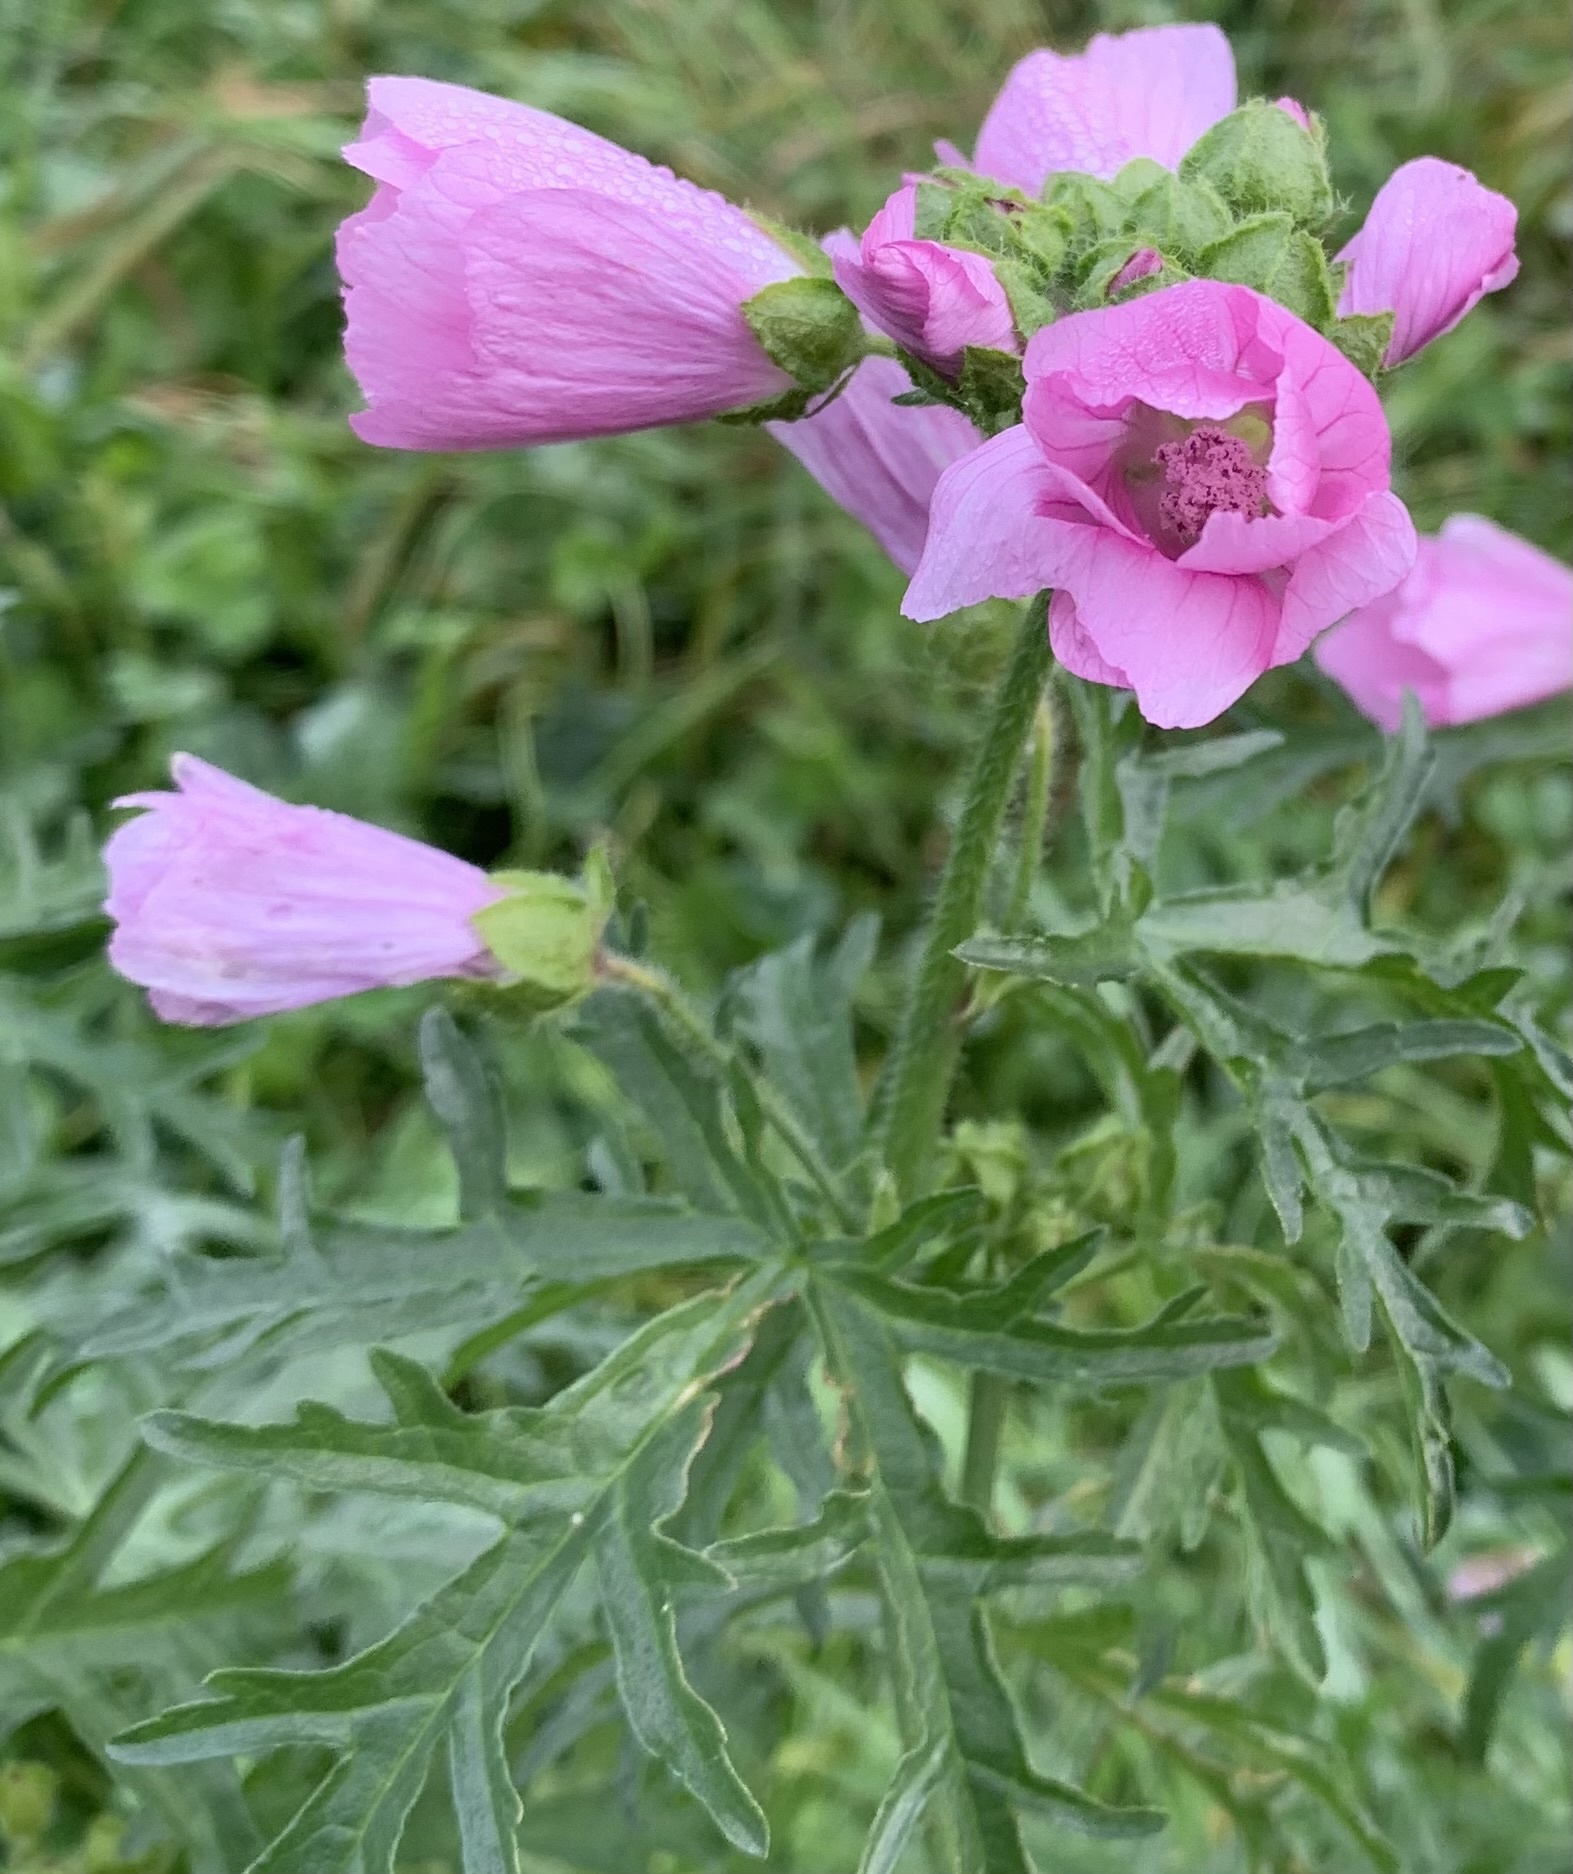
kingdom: Plantae
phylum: Tracheophyta
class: Magnoliopsida
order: Malvales
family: Malvaceae
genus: Malva
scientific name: Malva moschata
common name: Musk mallow
